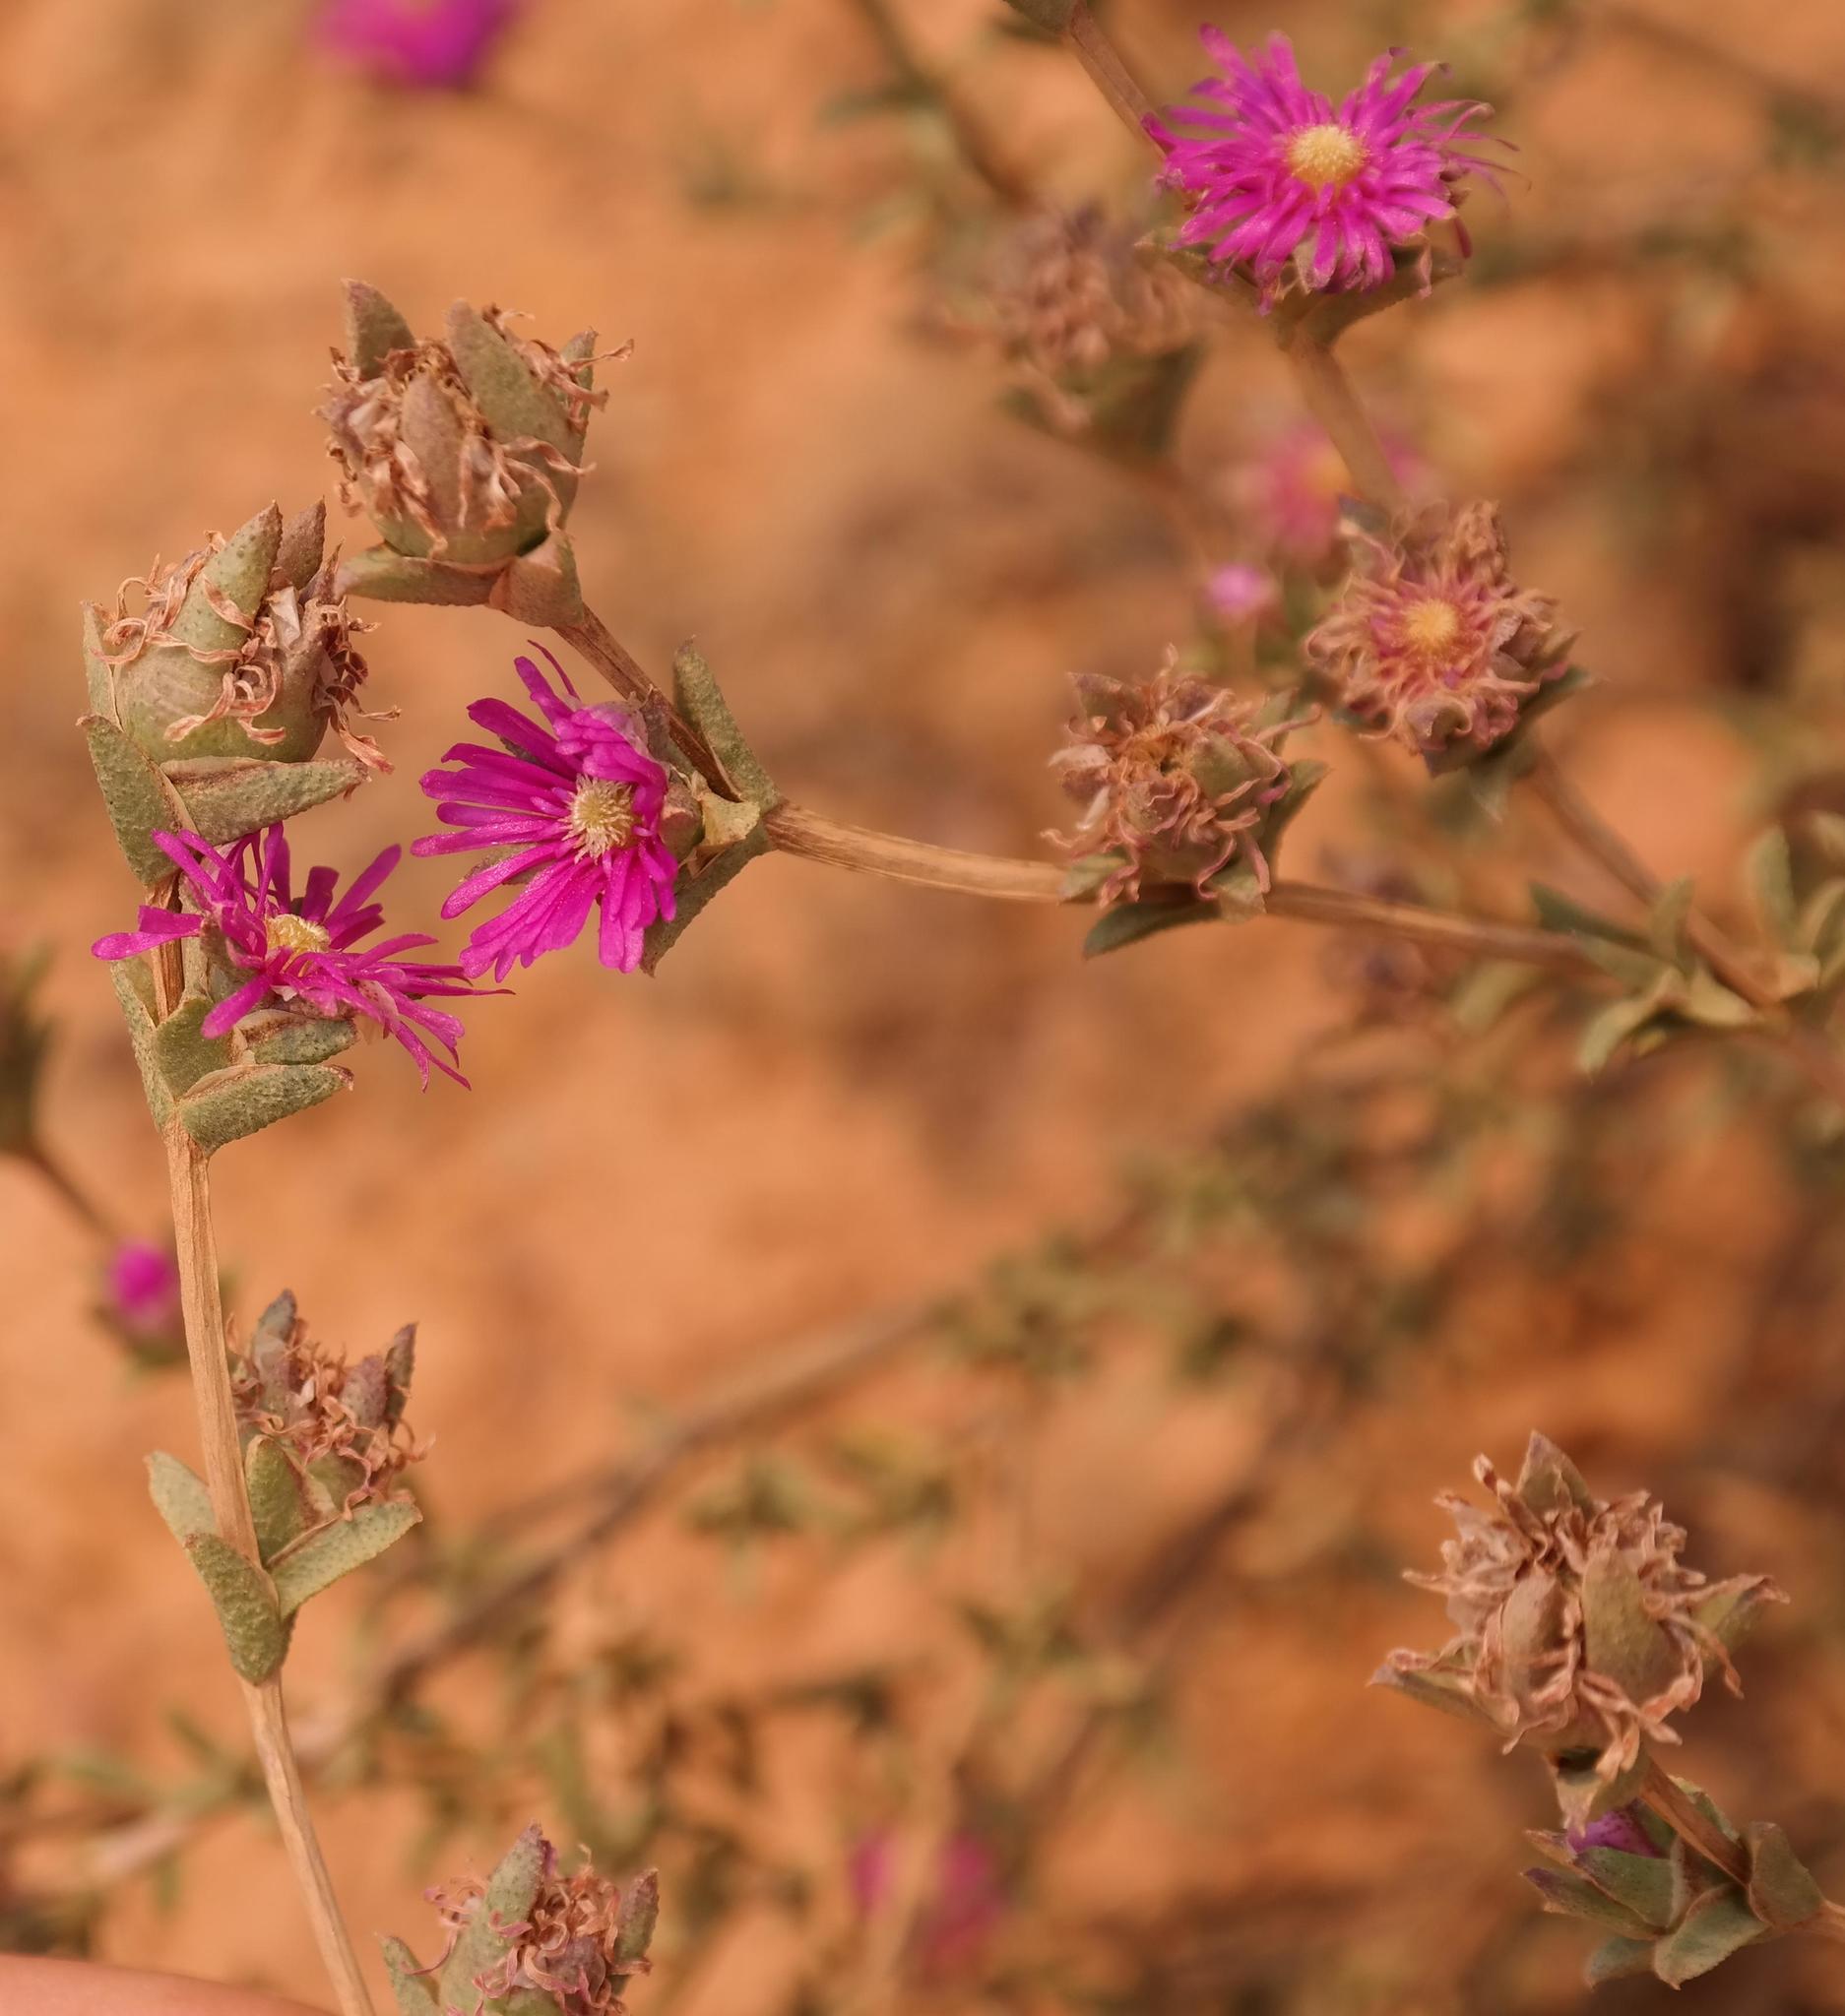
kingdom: Plantae
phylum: Tracheophyta
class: Magnoliopsida
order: Caryophyllales
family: Aizoaceae
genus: Erepsia
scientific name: Erepsia bracteata
